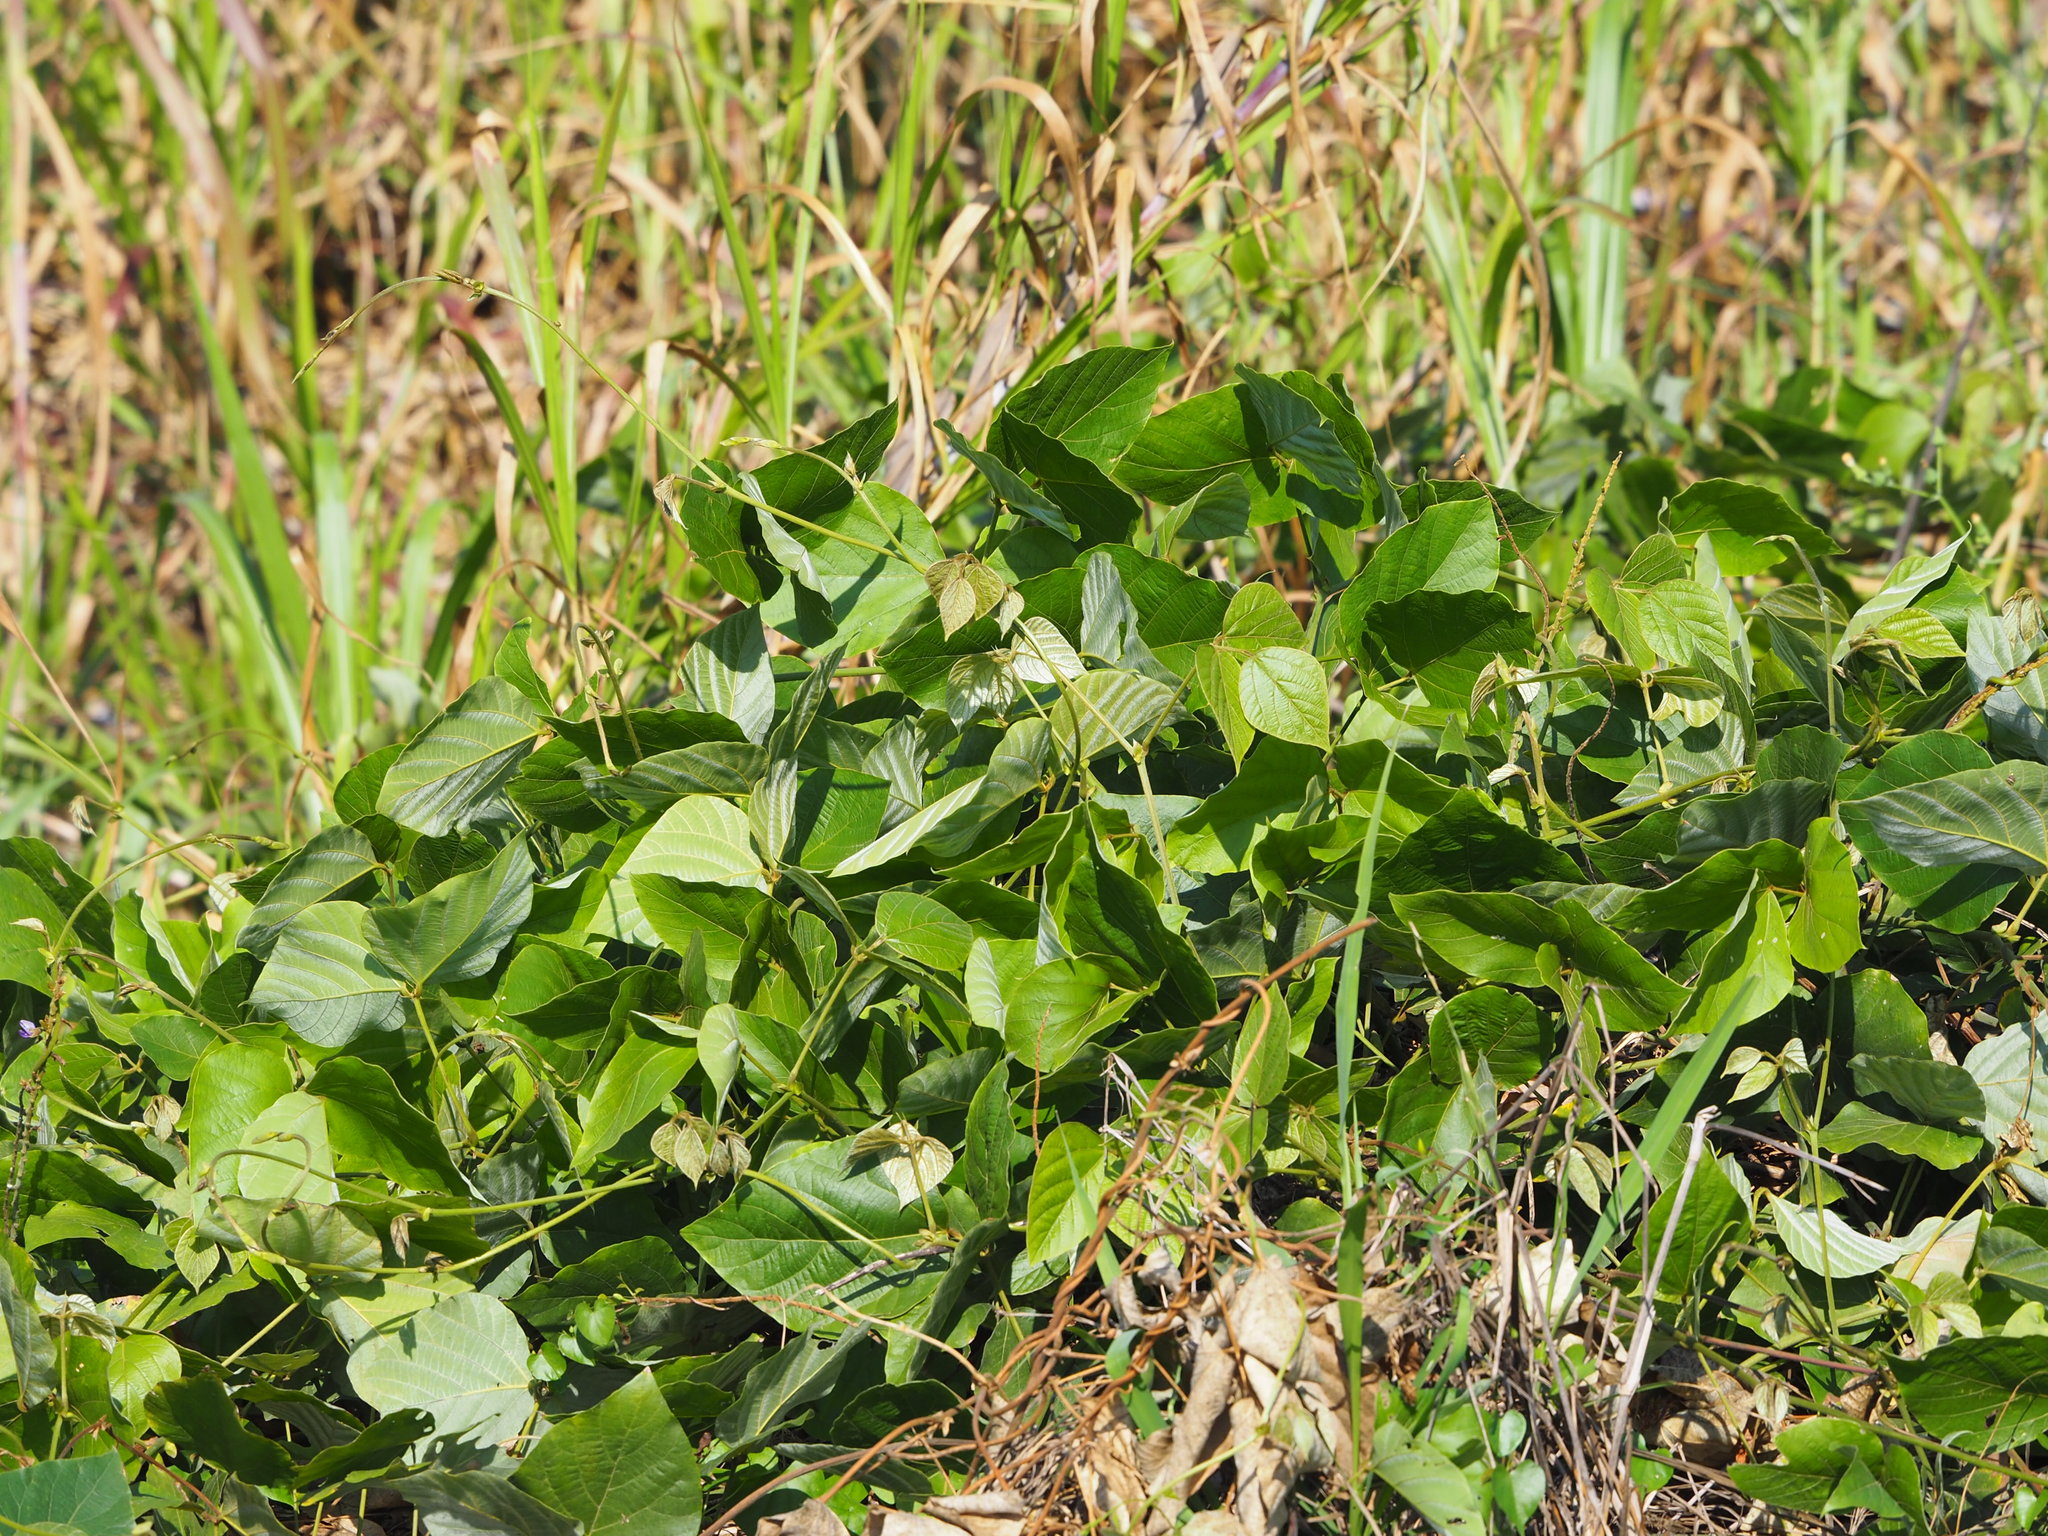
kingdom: Plantae
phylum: Tracheophyta
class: Magnoliopsida
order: Fabales
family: Fabaceae
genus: Pueraria
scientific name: Pueraria montana
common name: Kudzu
